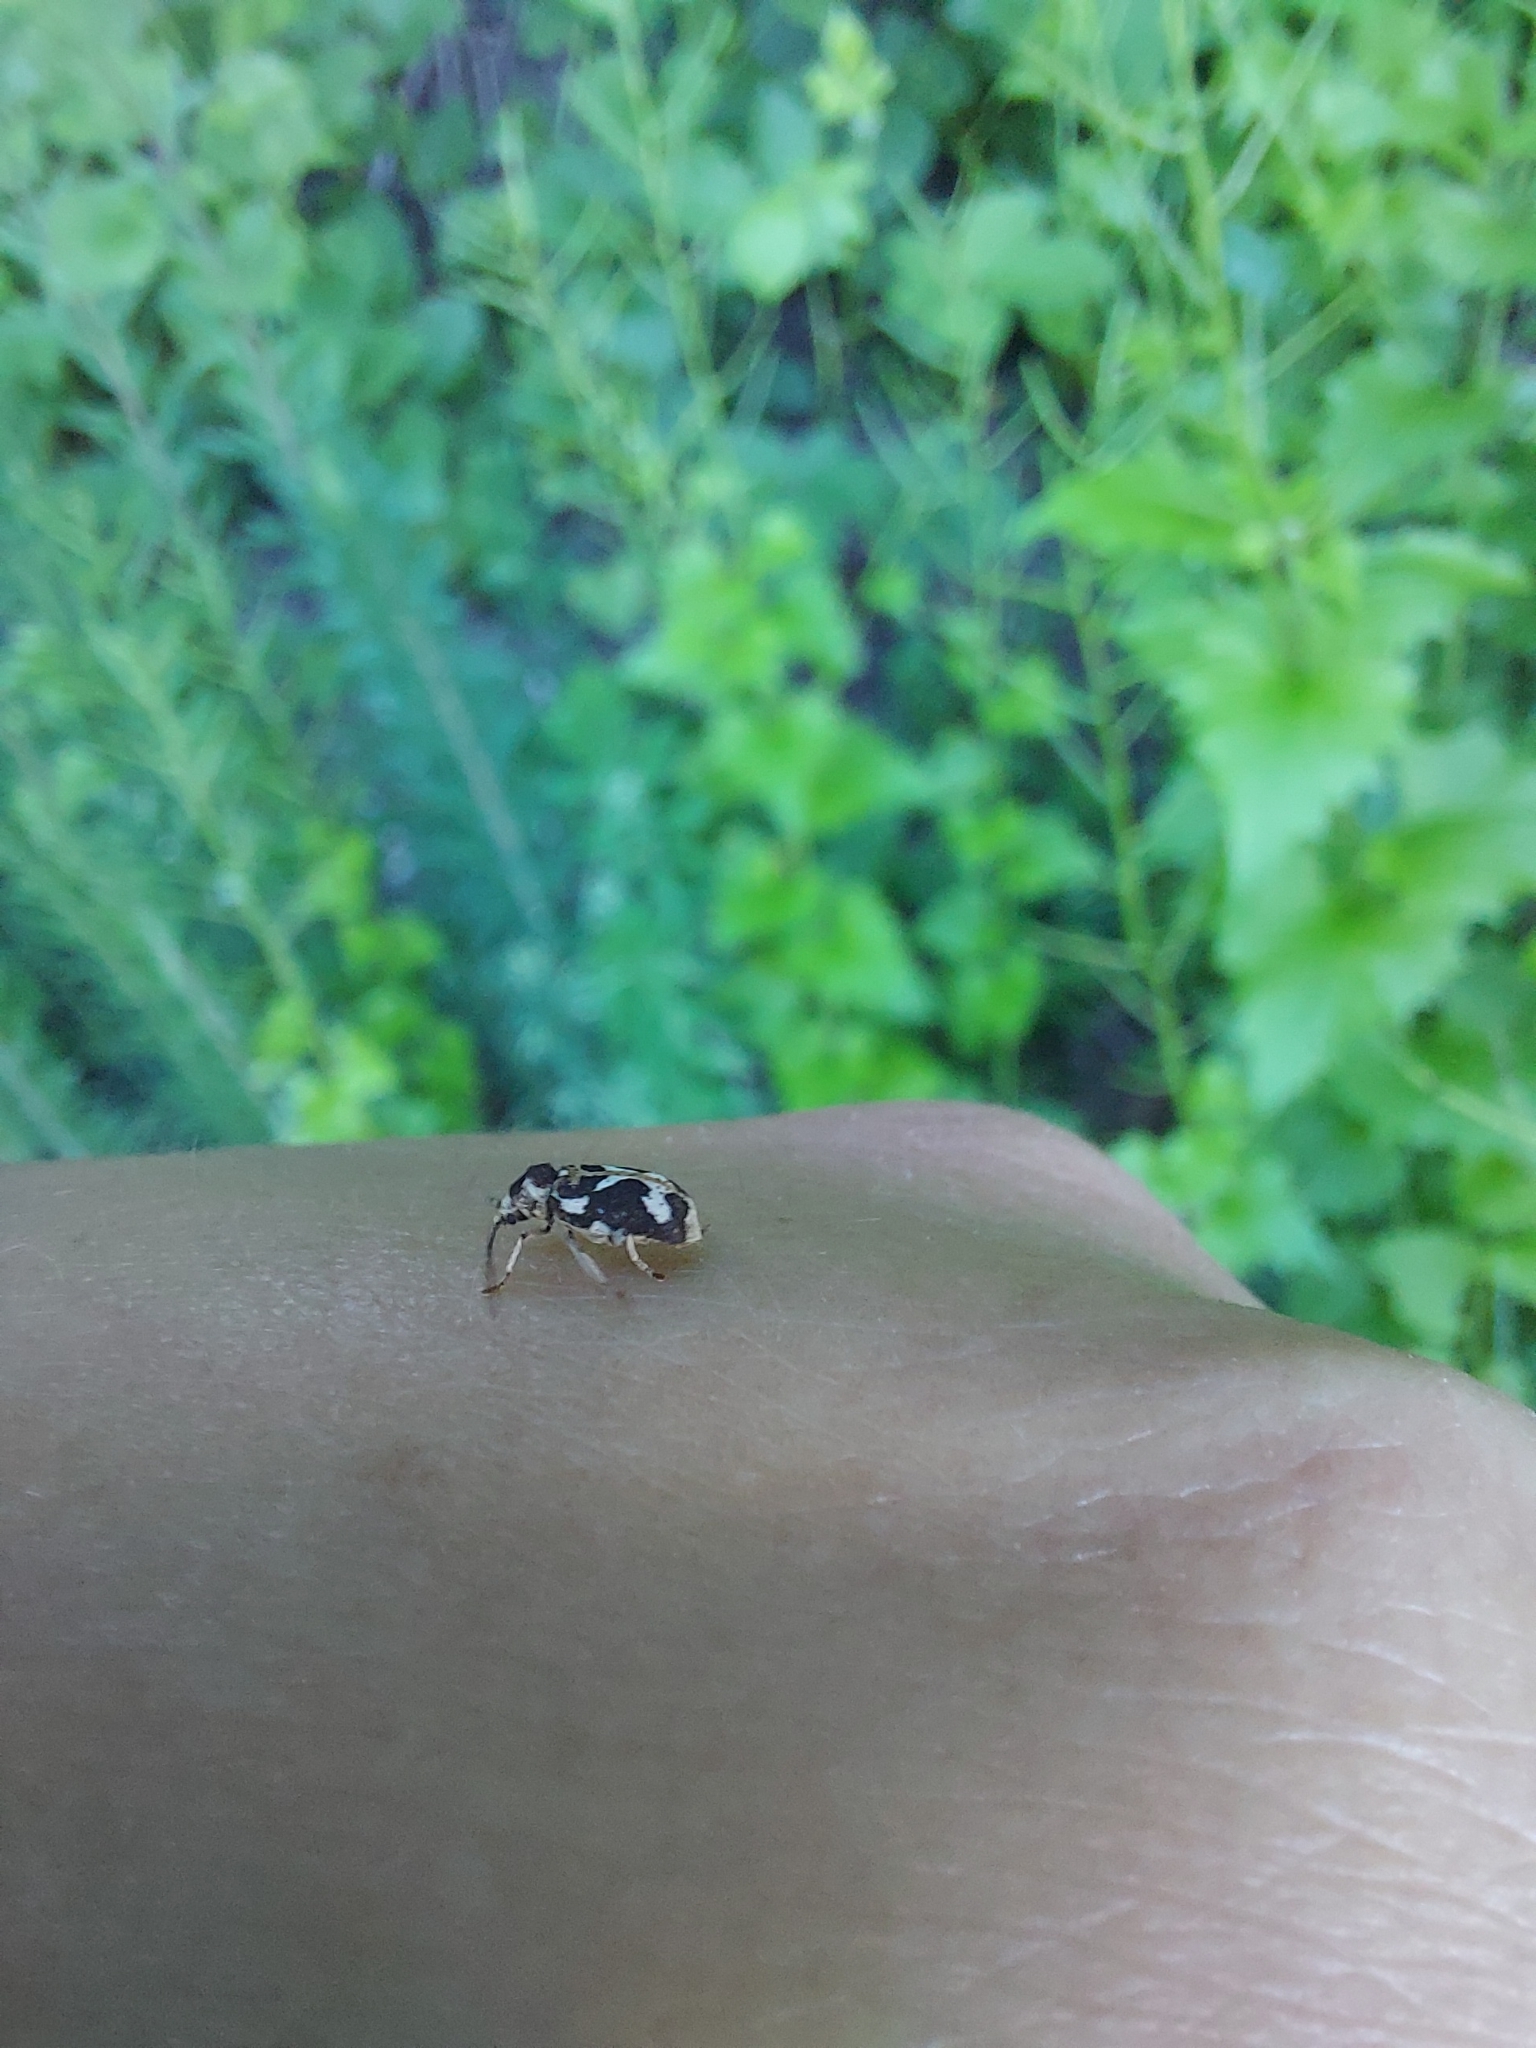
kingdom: Animalia
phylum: Arthropoda
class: Insecta
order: Coleoptera
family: Anobiidae
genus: Ptinomorphus
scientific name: Ptinomorphus imperialis
